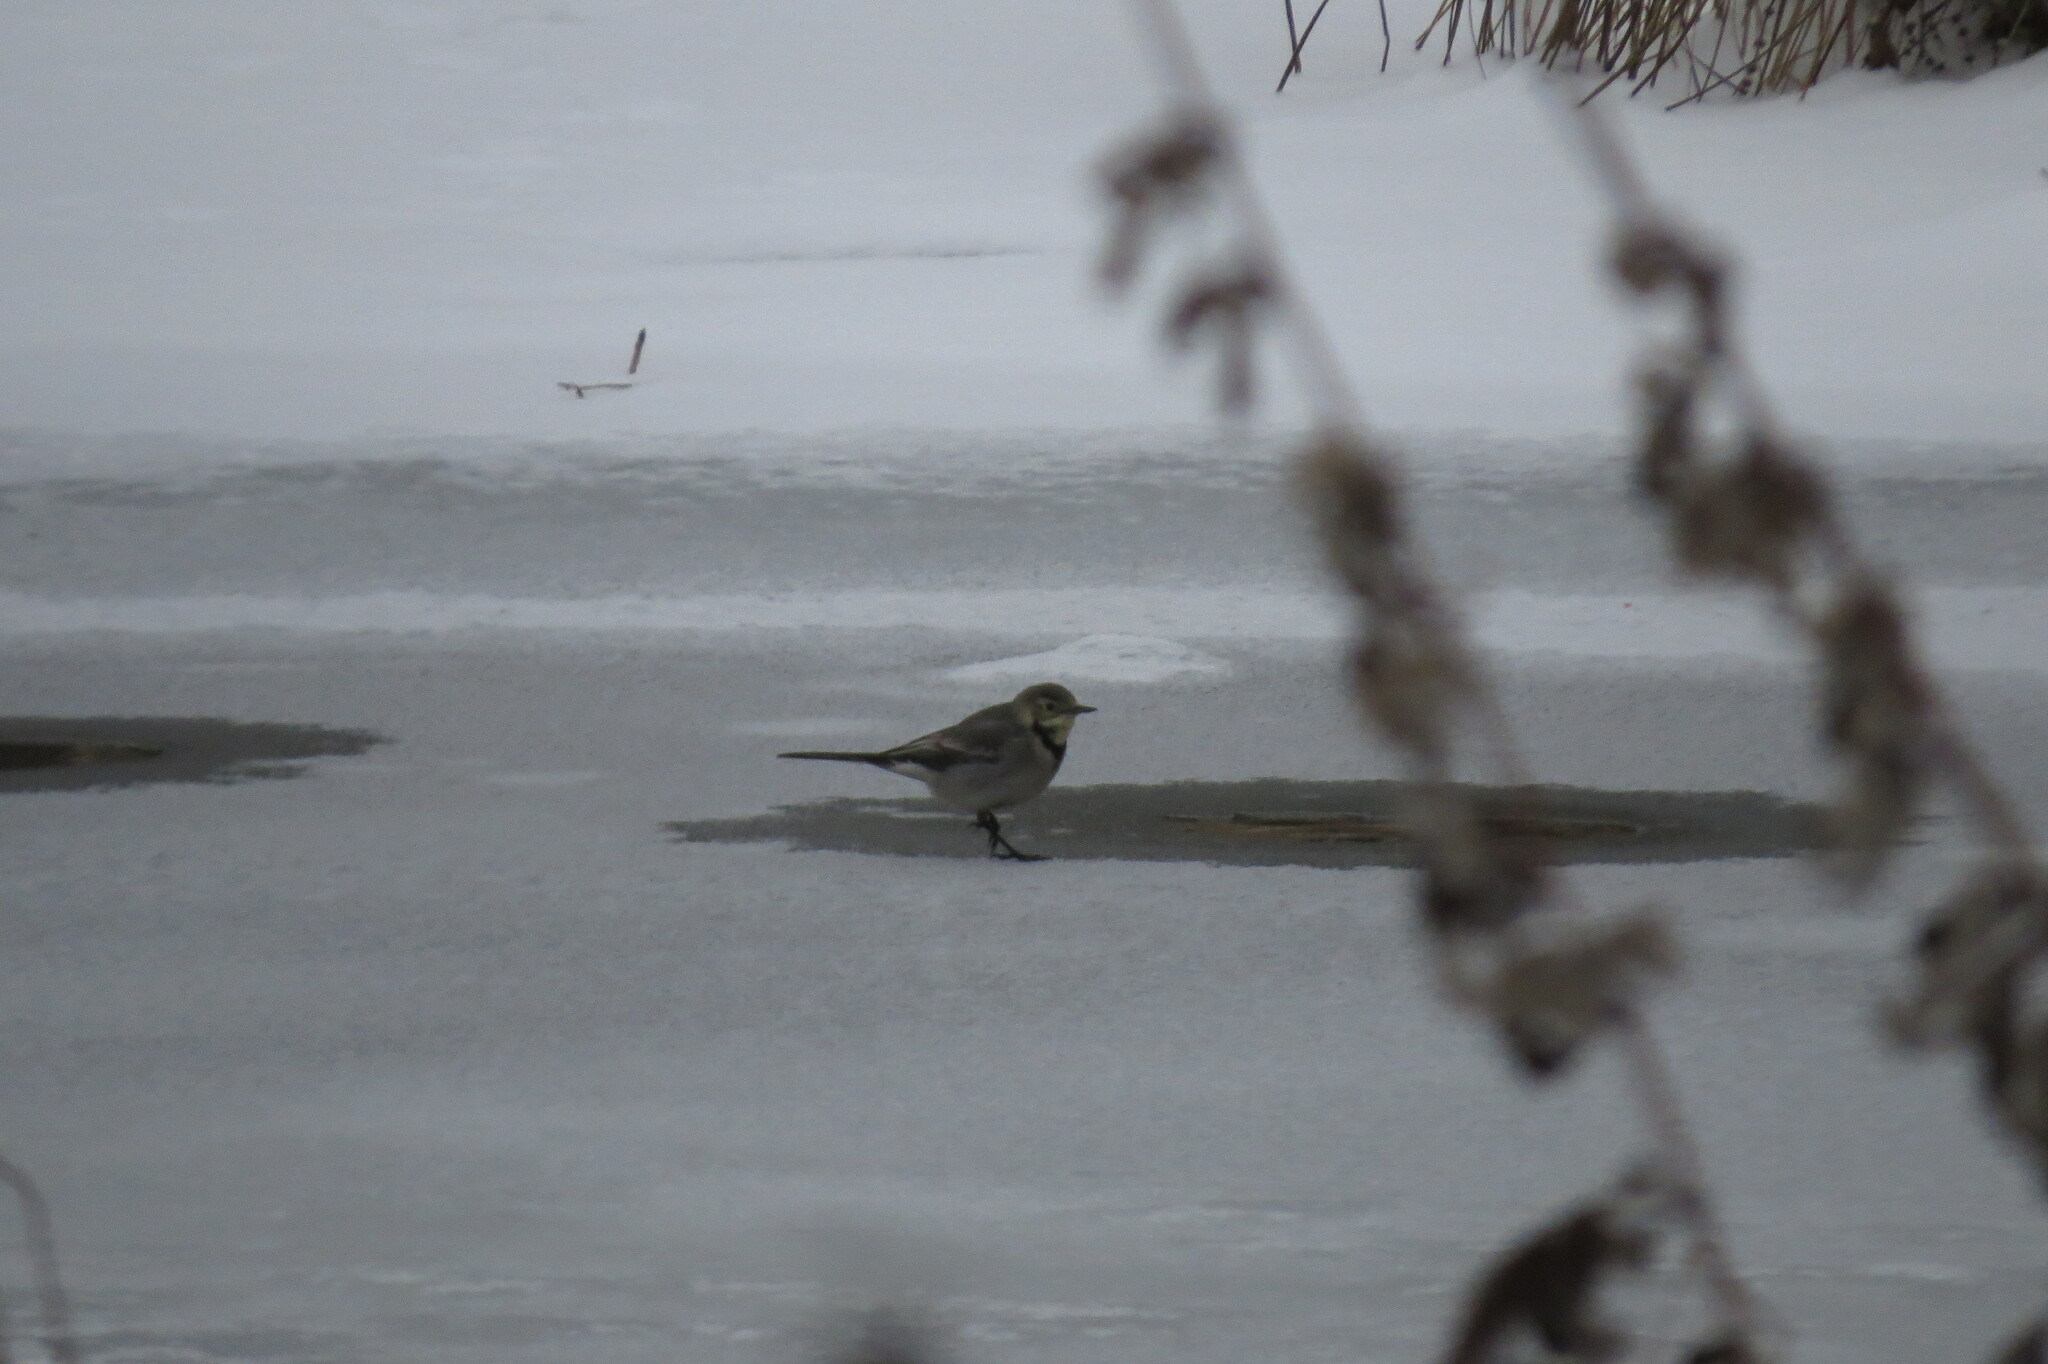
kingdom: Animalia
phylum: Chordata
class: Aves
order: Passeriformes
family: Motacillidae
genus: Motacilla
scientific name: Motacilla alba
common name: White wagtail
